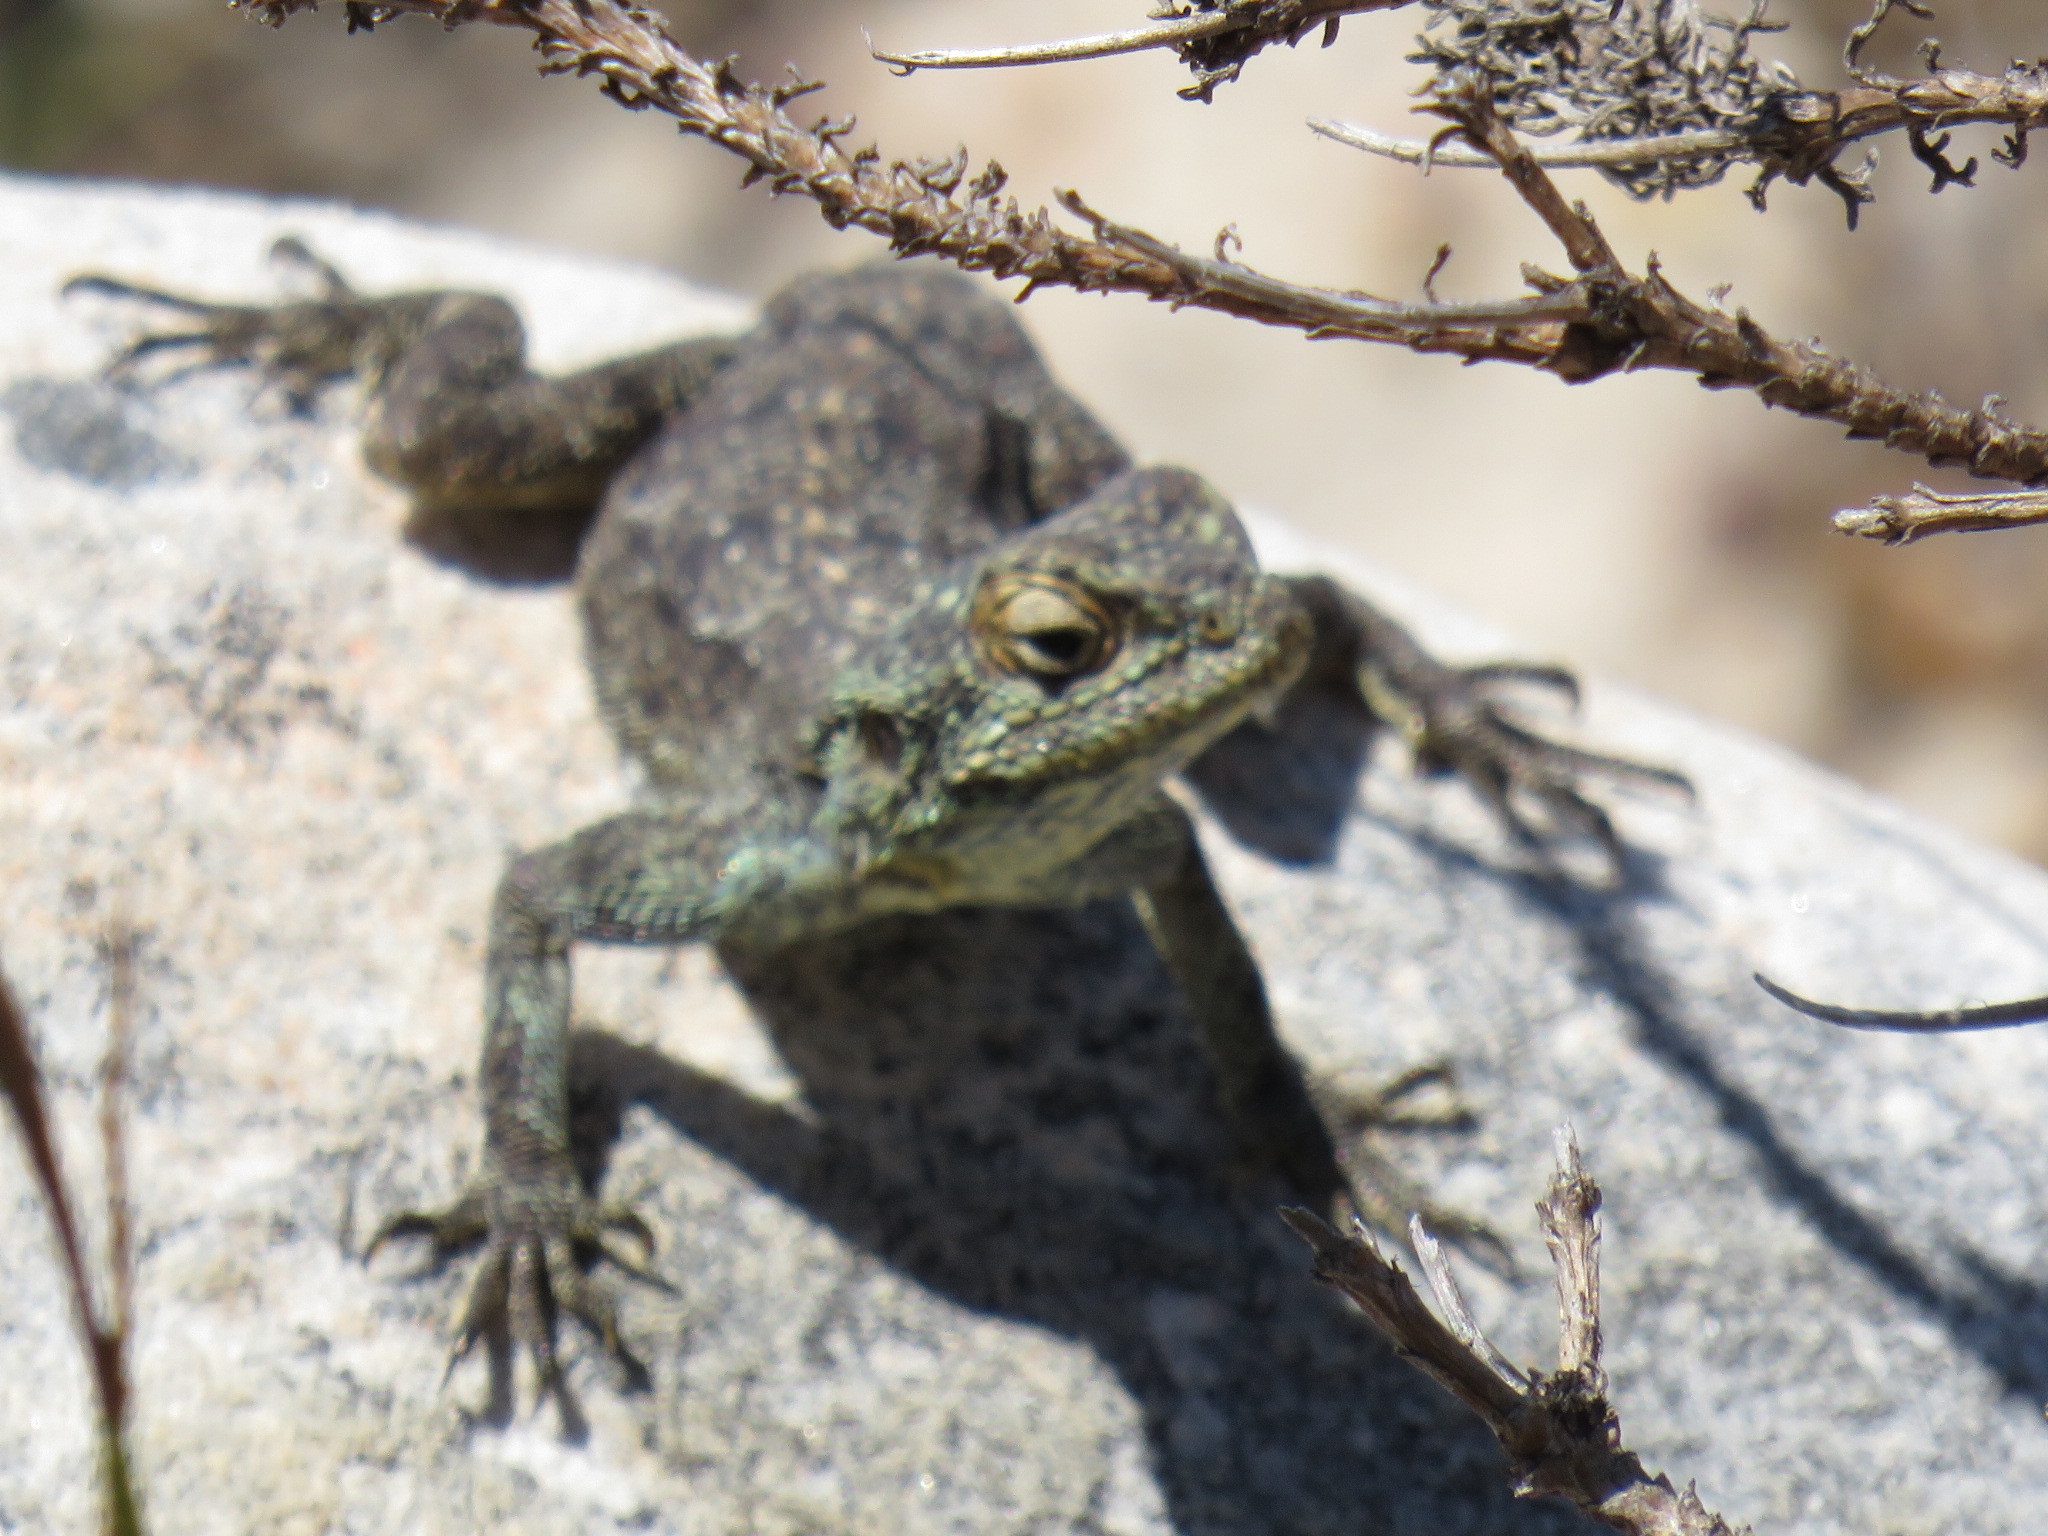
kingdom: Animalia
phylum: Chordata
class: Squamata
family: Agamidae
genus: Agama
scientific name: Agama atra
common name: Southern african rock agama
